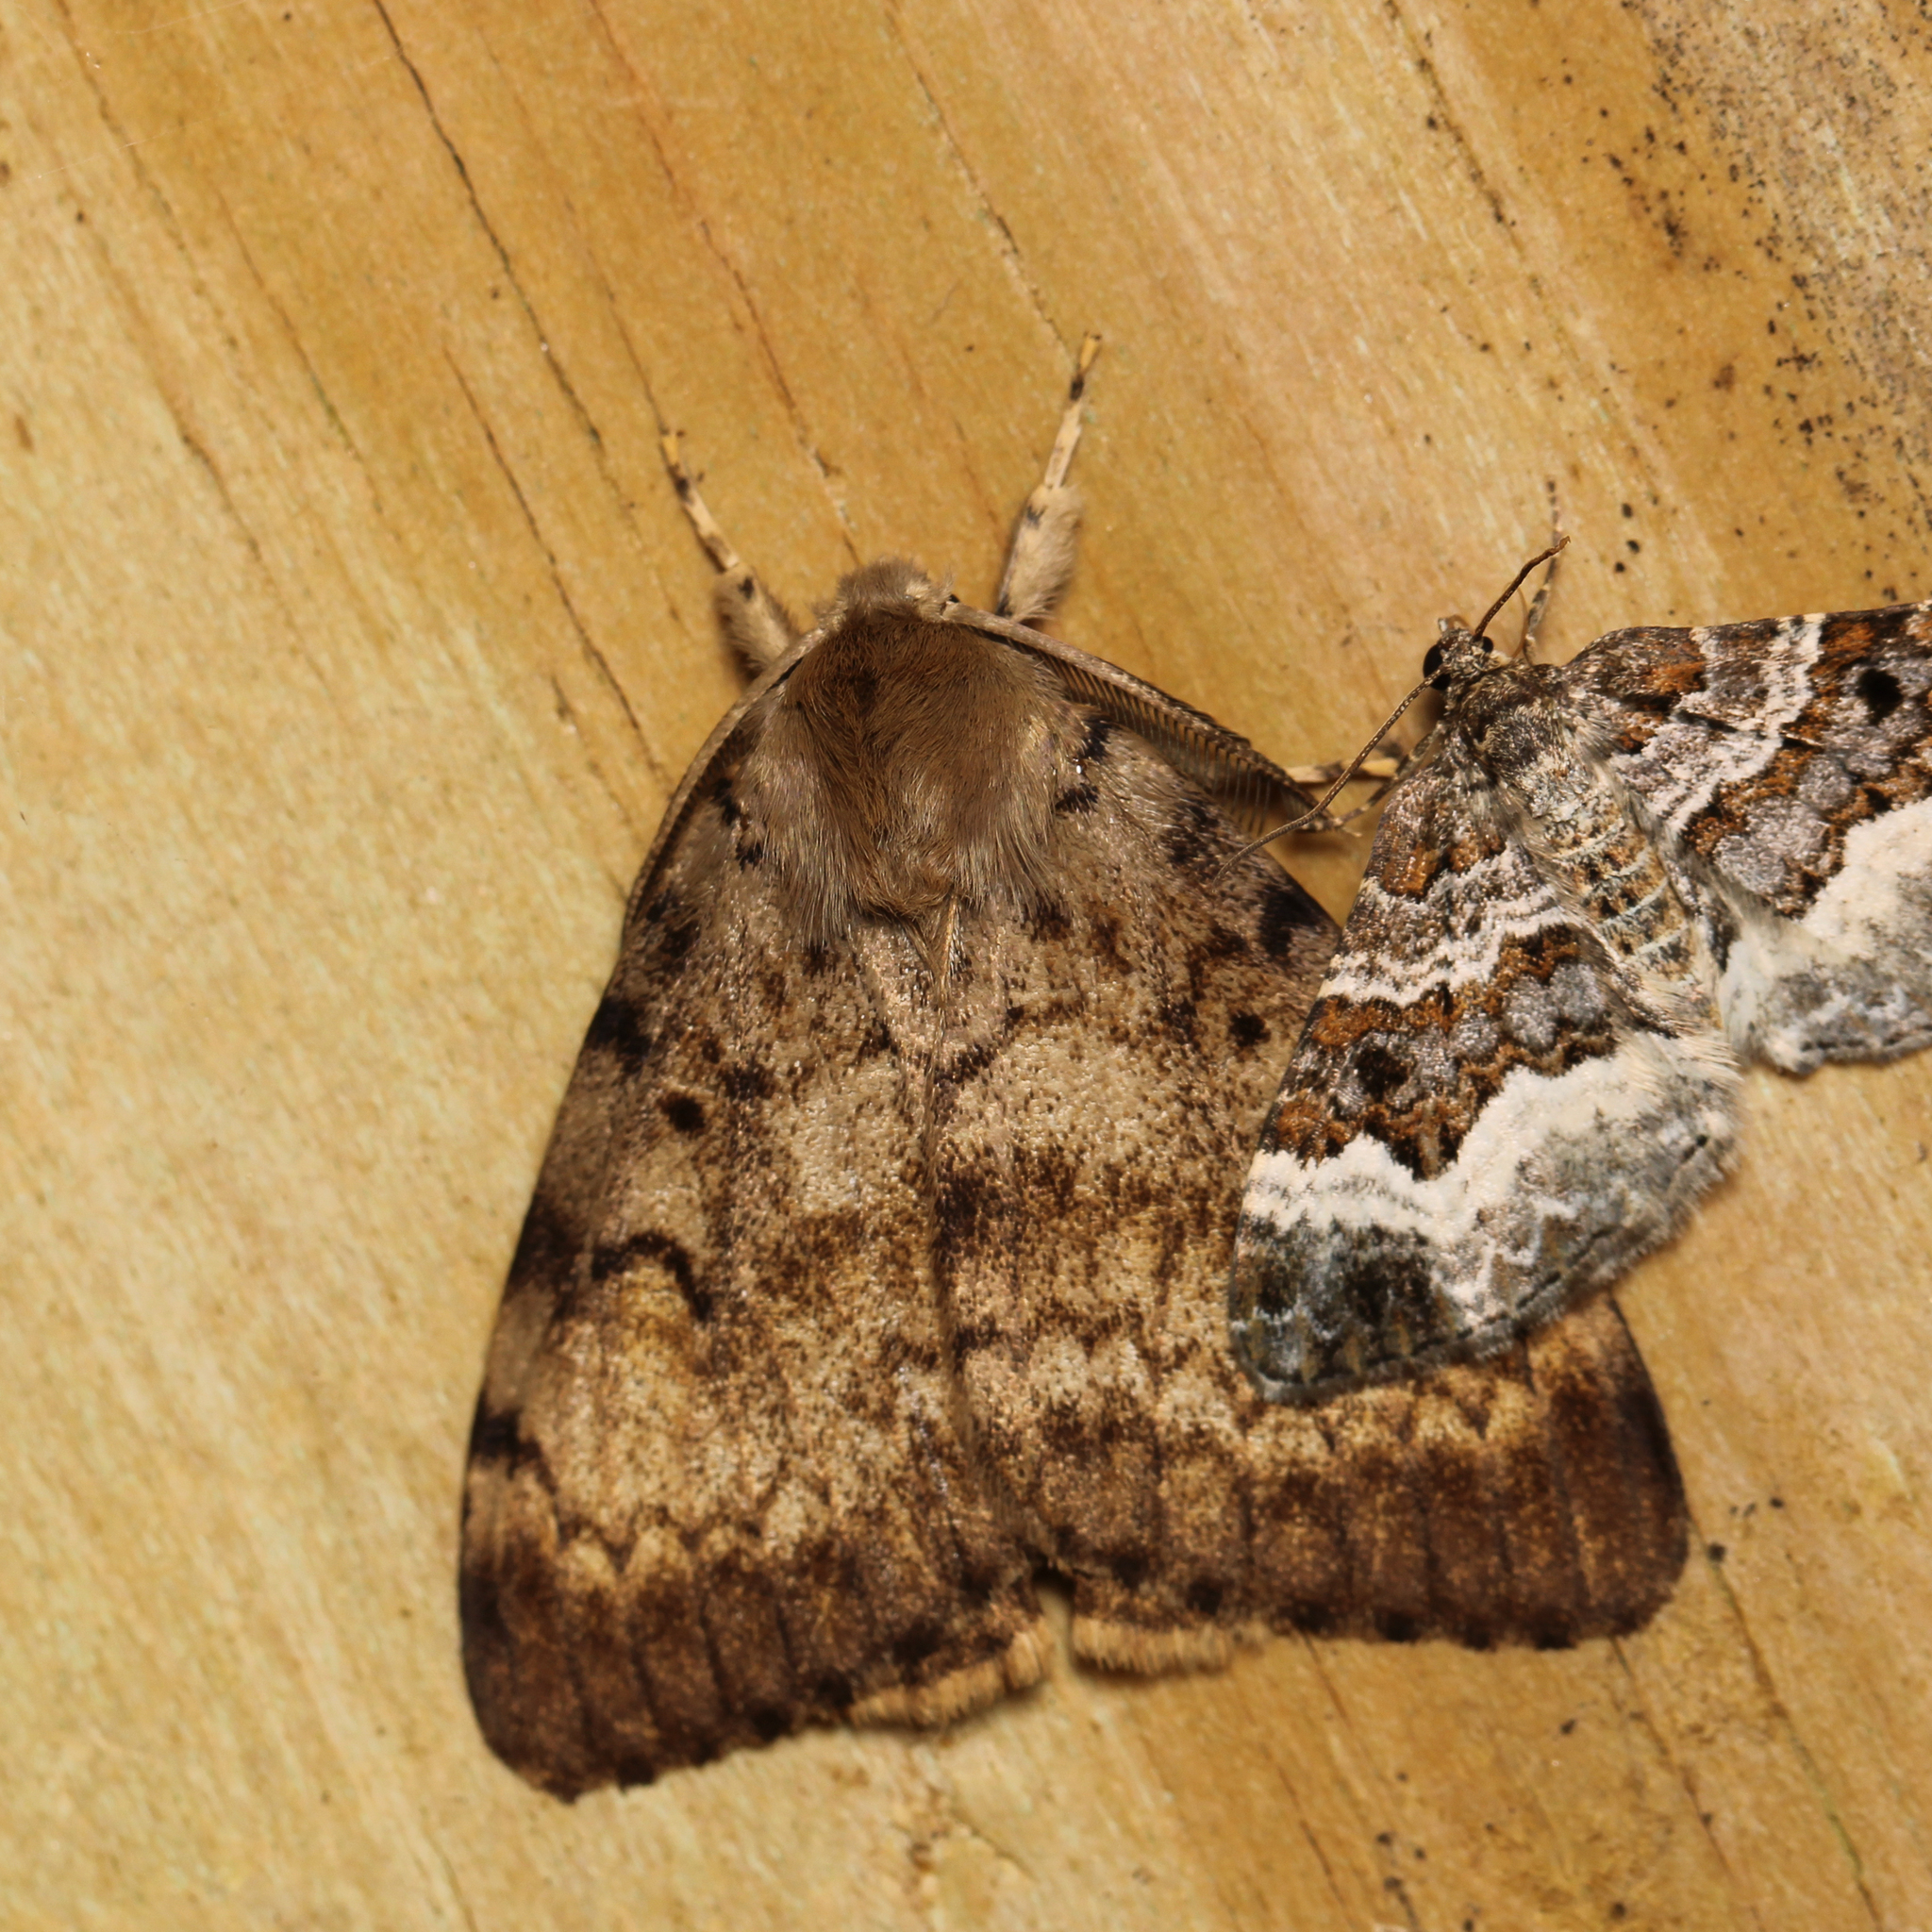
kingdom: Animalia
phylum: Arthropoda
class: Insecta
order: Lepidoptera
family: Erebidae
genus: Lymantria
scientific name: Lymantria dispar
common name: Gypsy moth
